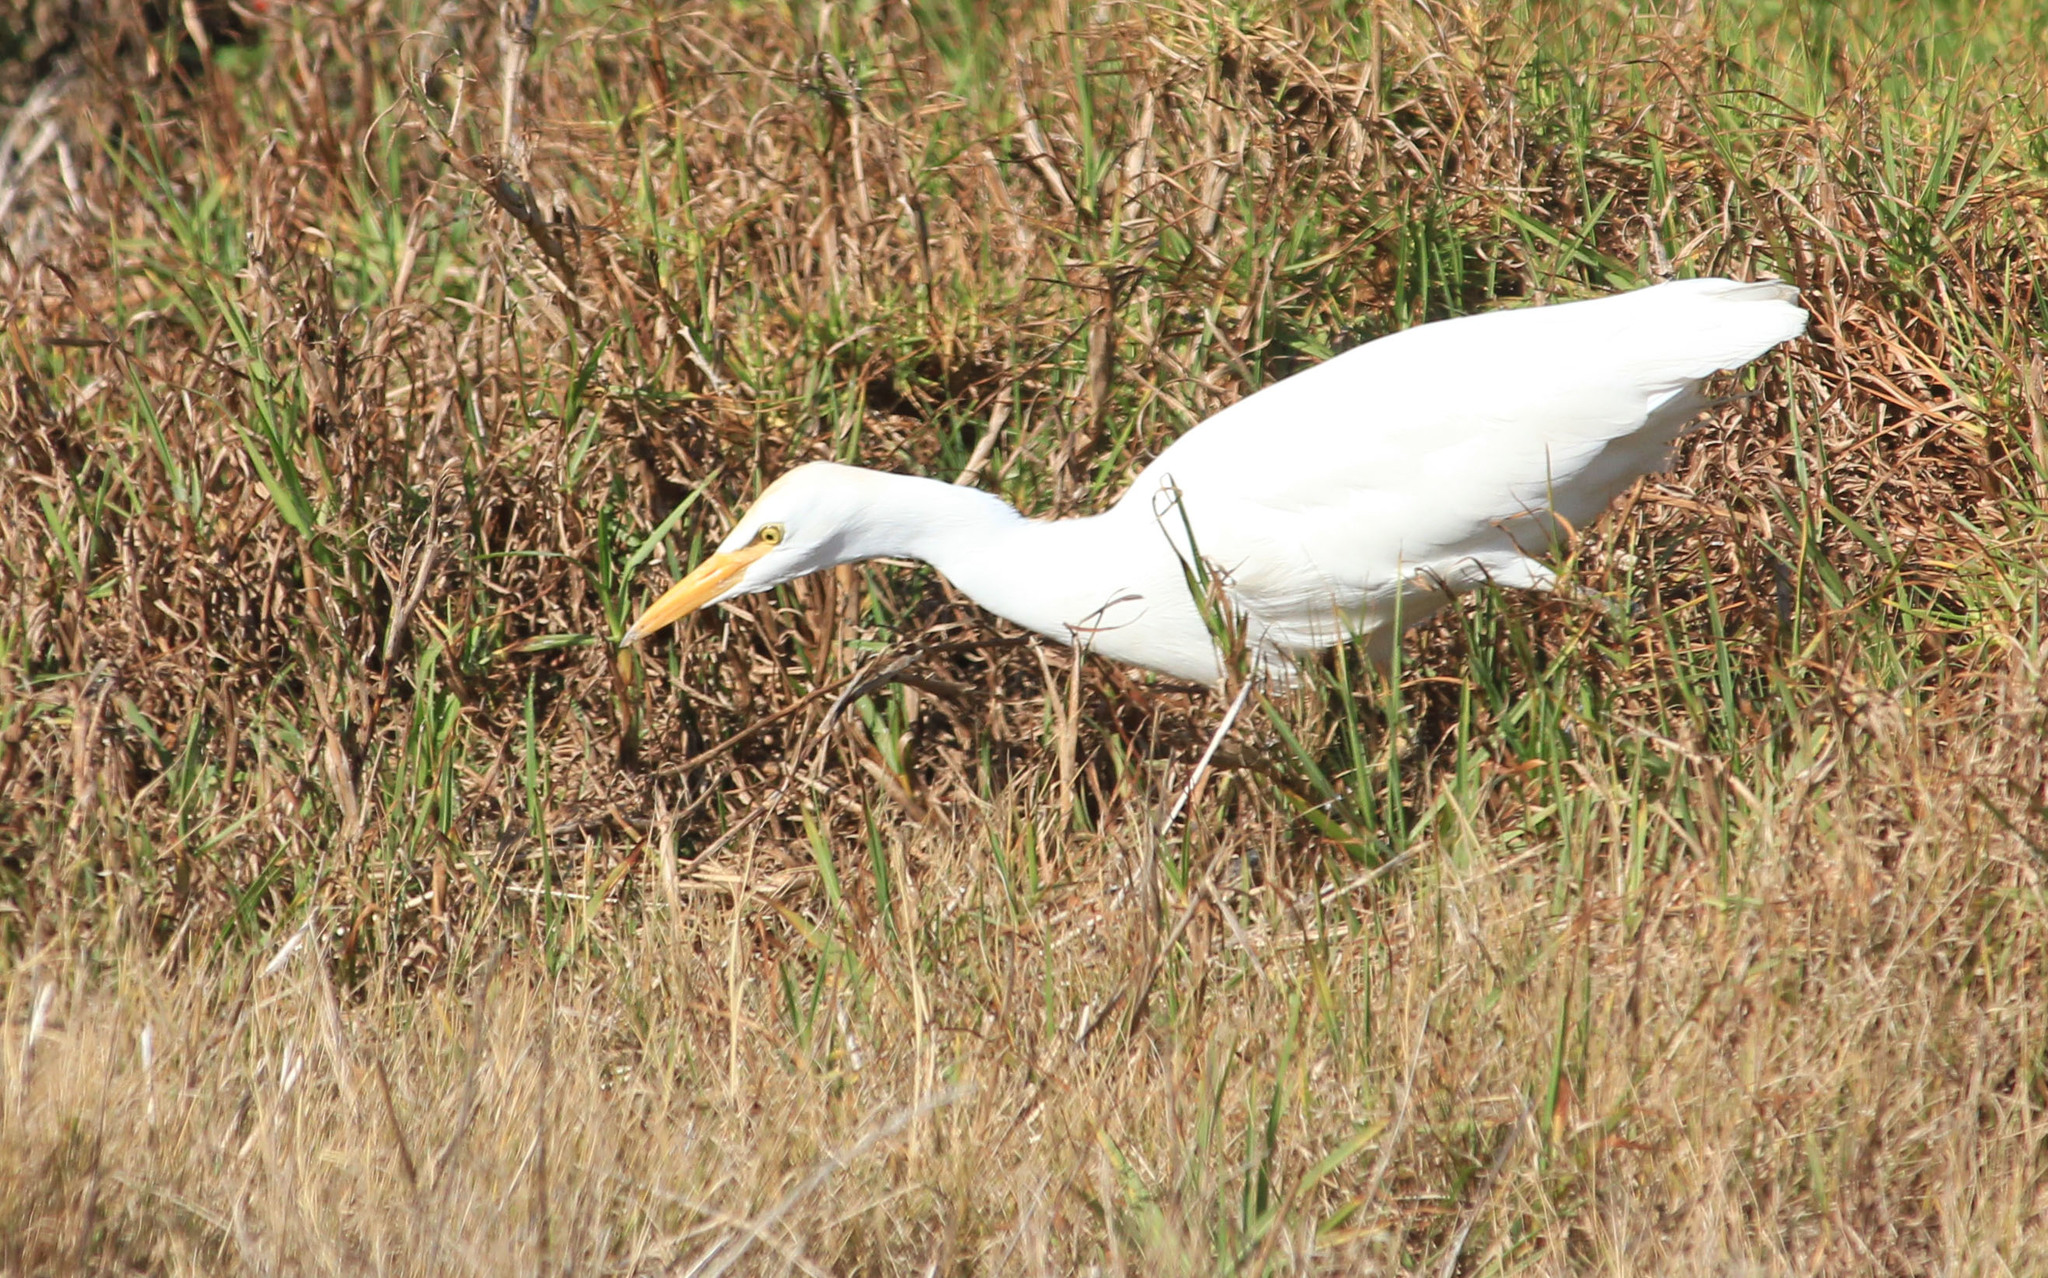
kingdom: Animalia
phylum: Chordata
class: Aves
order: Pelecaniformes
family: Ardeidae
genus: Bubulcus
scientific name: Bubulcus ibis
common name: Cattle egret
